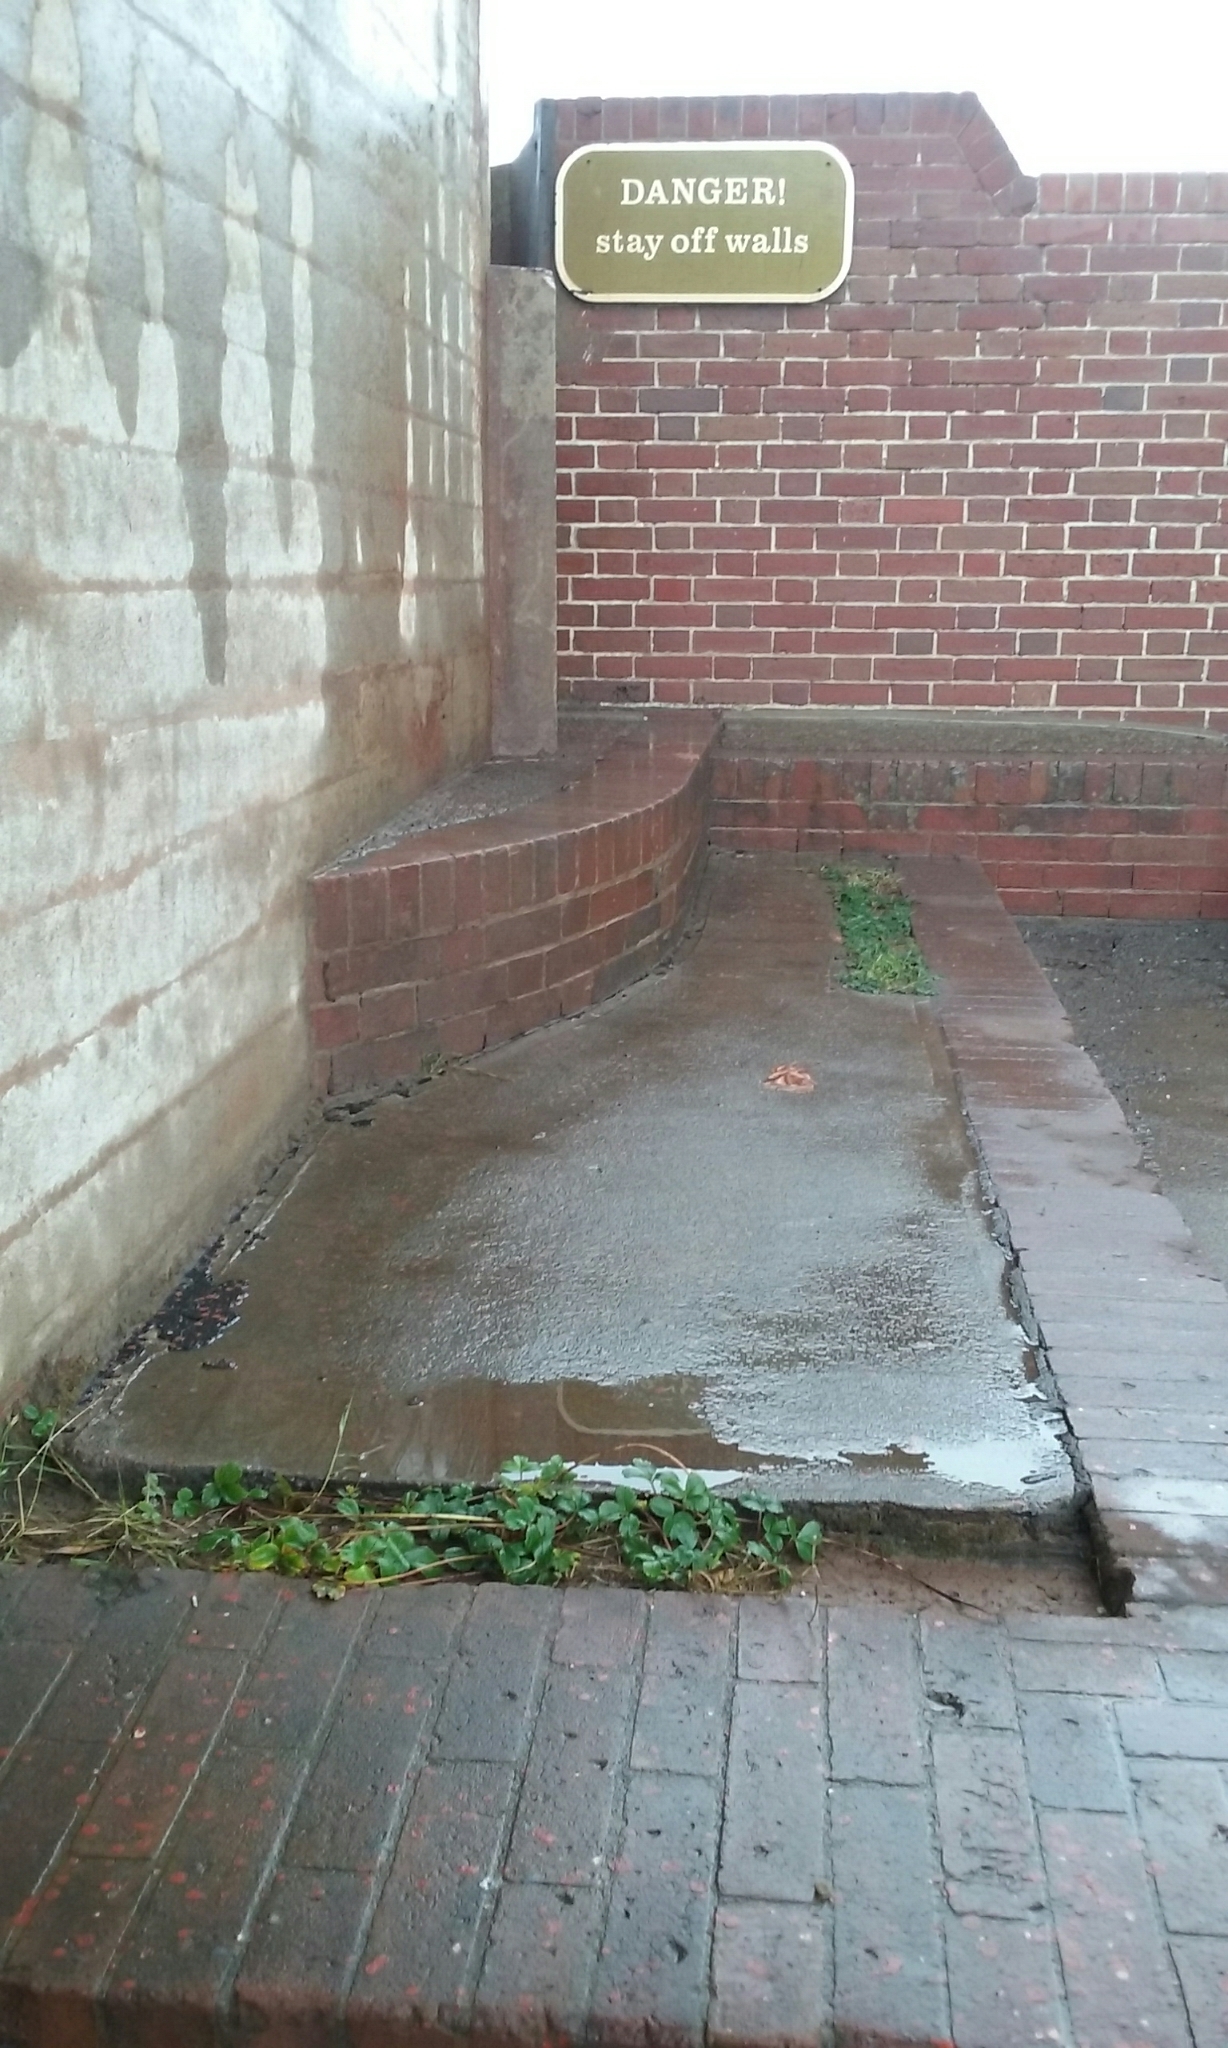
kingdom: Plantae
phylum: Tracheophyta
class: Magnoliopsida
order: Rosales
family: Rosaceae
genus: Fragaria
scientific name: Fragaria chiloensis
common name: Beach strawberry
